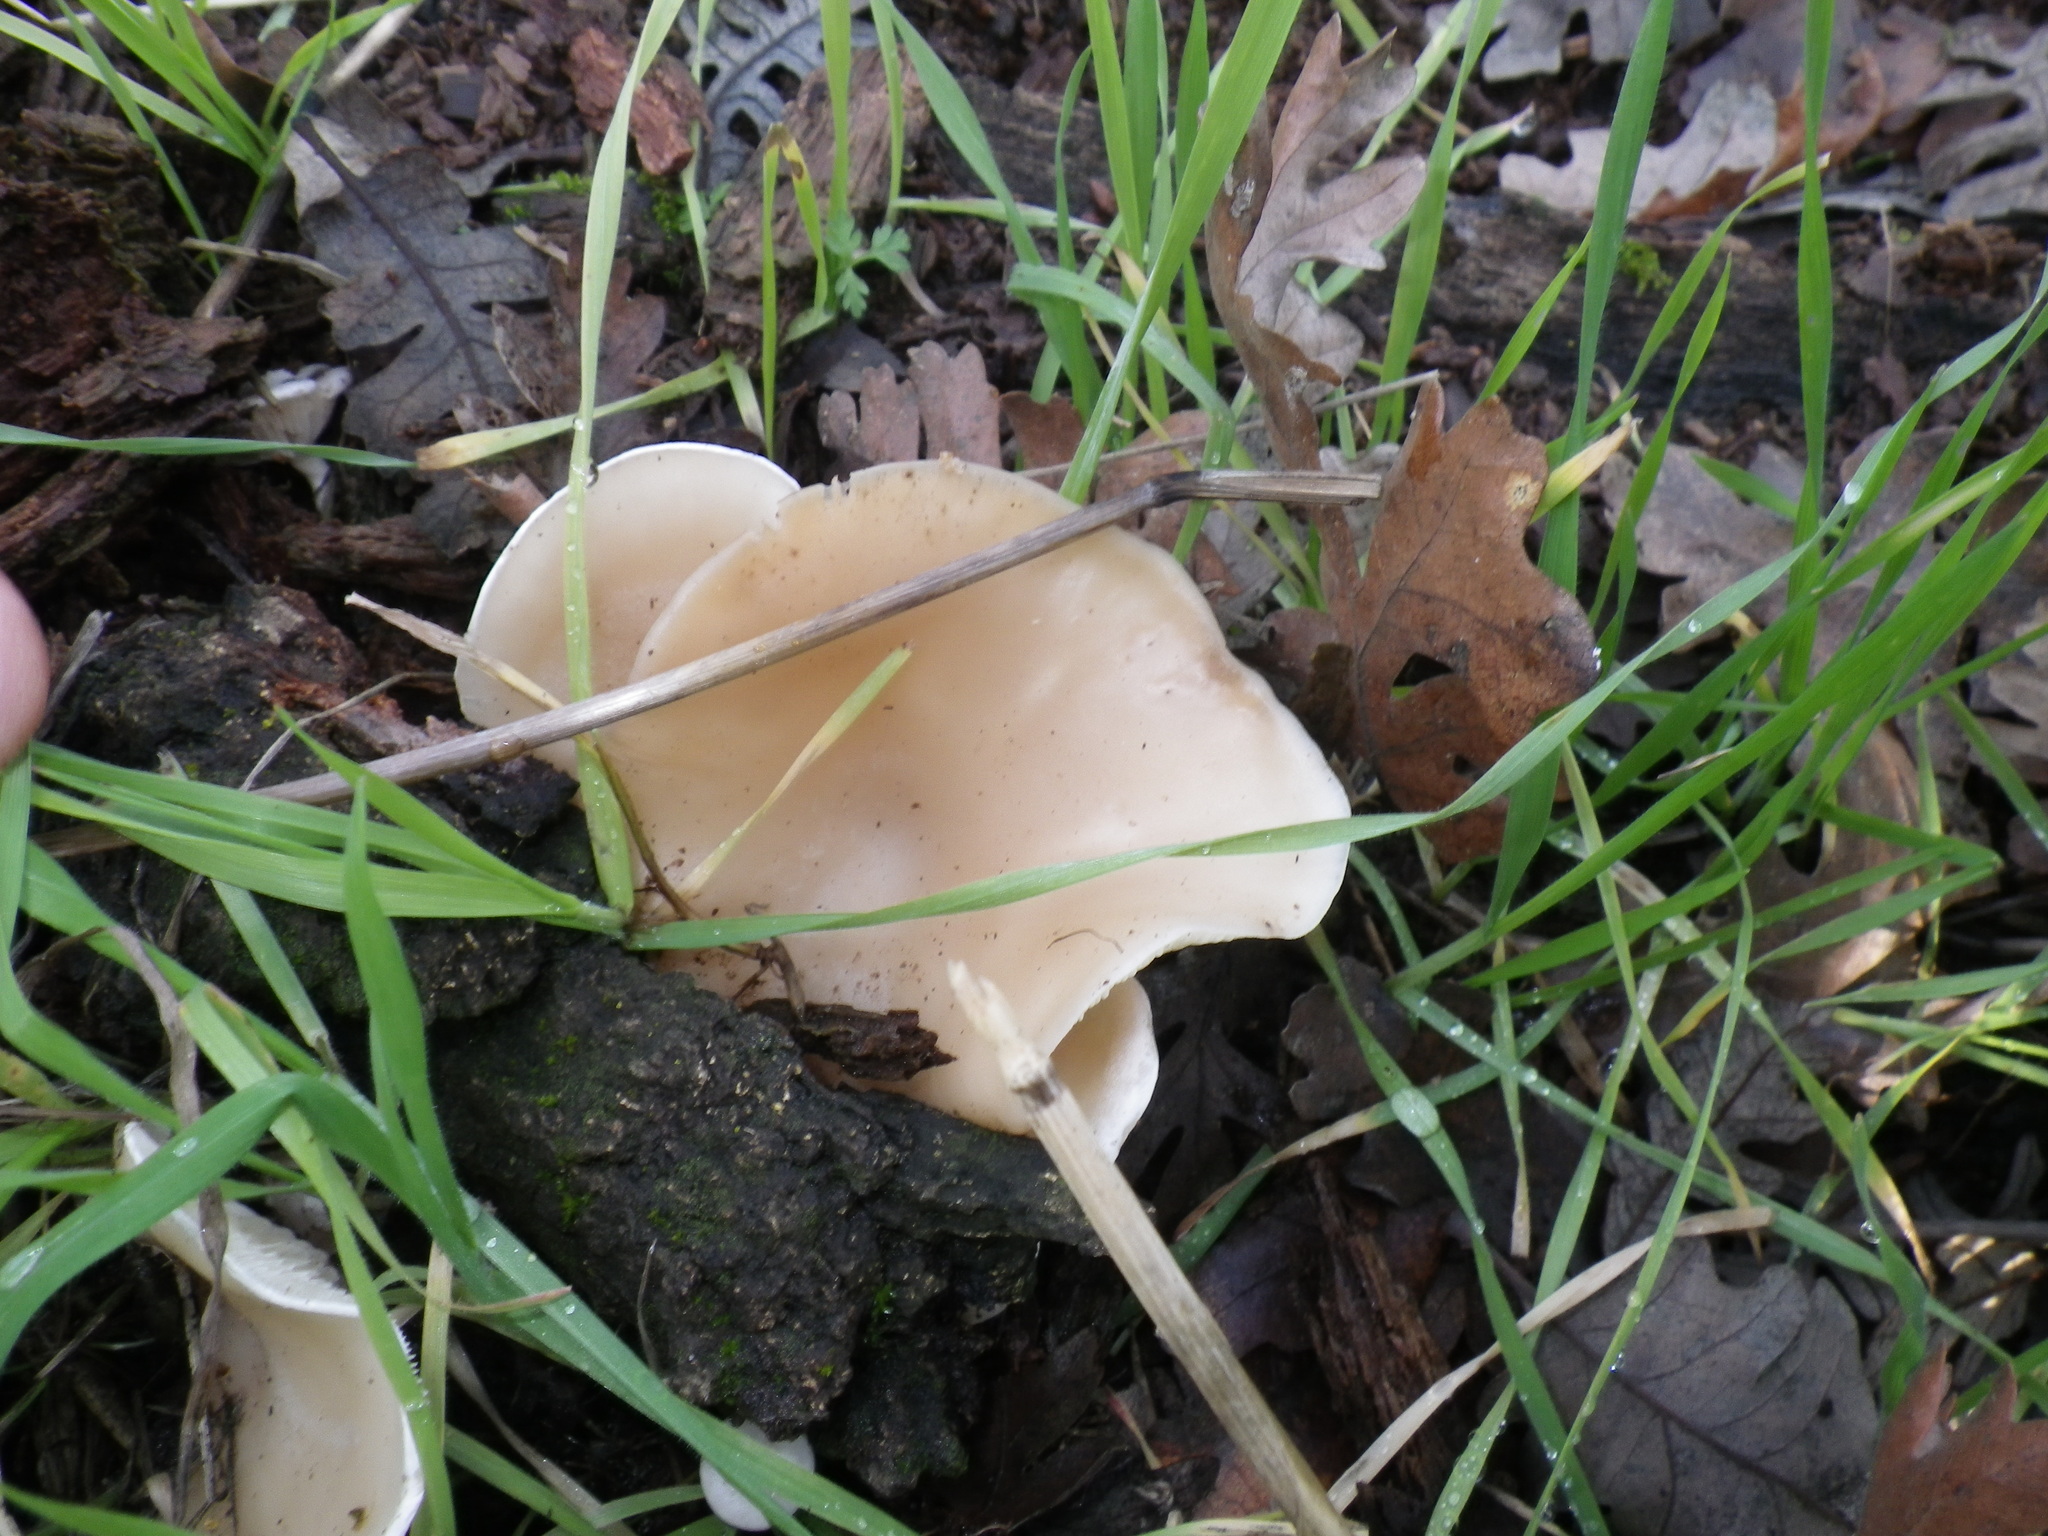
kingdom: Fungi
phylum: Basidiomycota
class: Agaricomycetes
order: Agaricales
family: Pleurotaceae
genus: Pleurotus
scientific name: Pleurotus ostreatus
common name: Oyster mushroom
